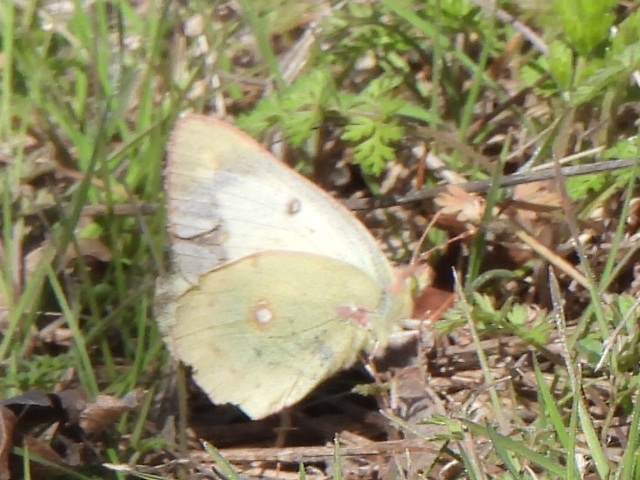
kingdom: Animalia
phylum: Arthropoda
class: Insecta
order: Lepidoptera
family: Pieridae
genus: Colias
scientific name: Colias eurytheme
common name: Alfalfa butterfly
